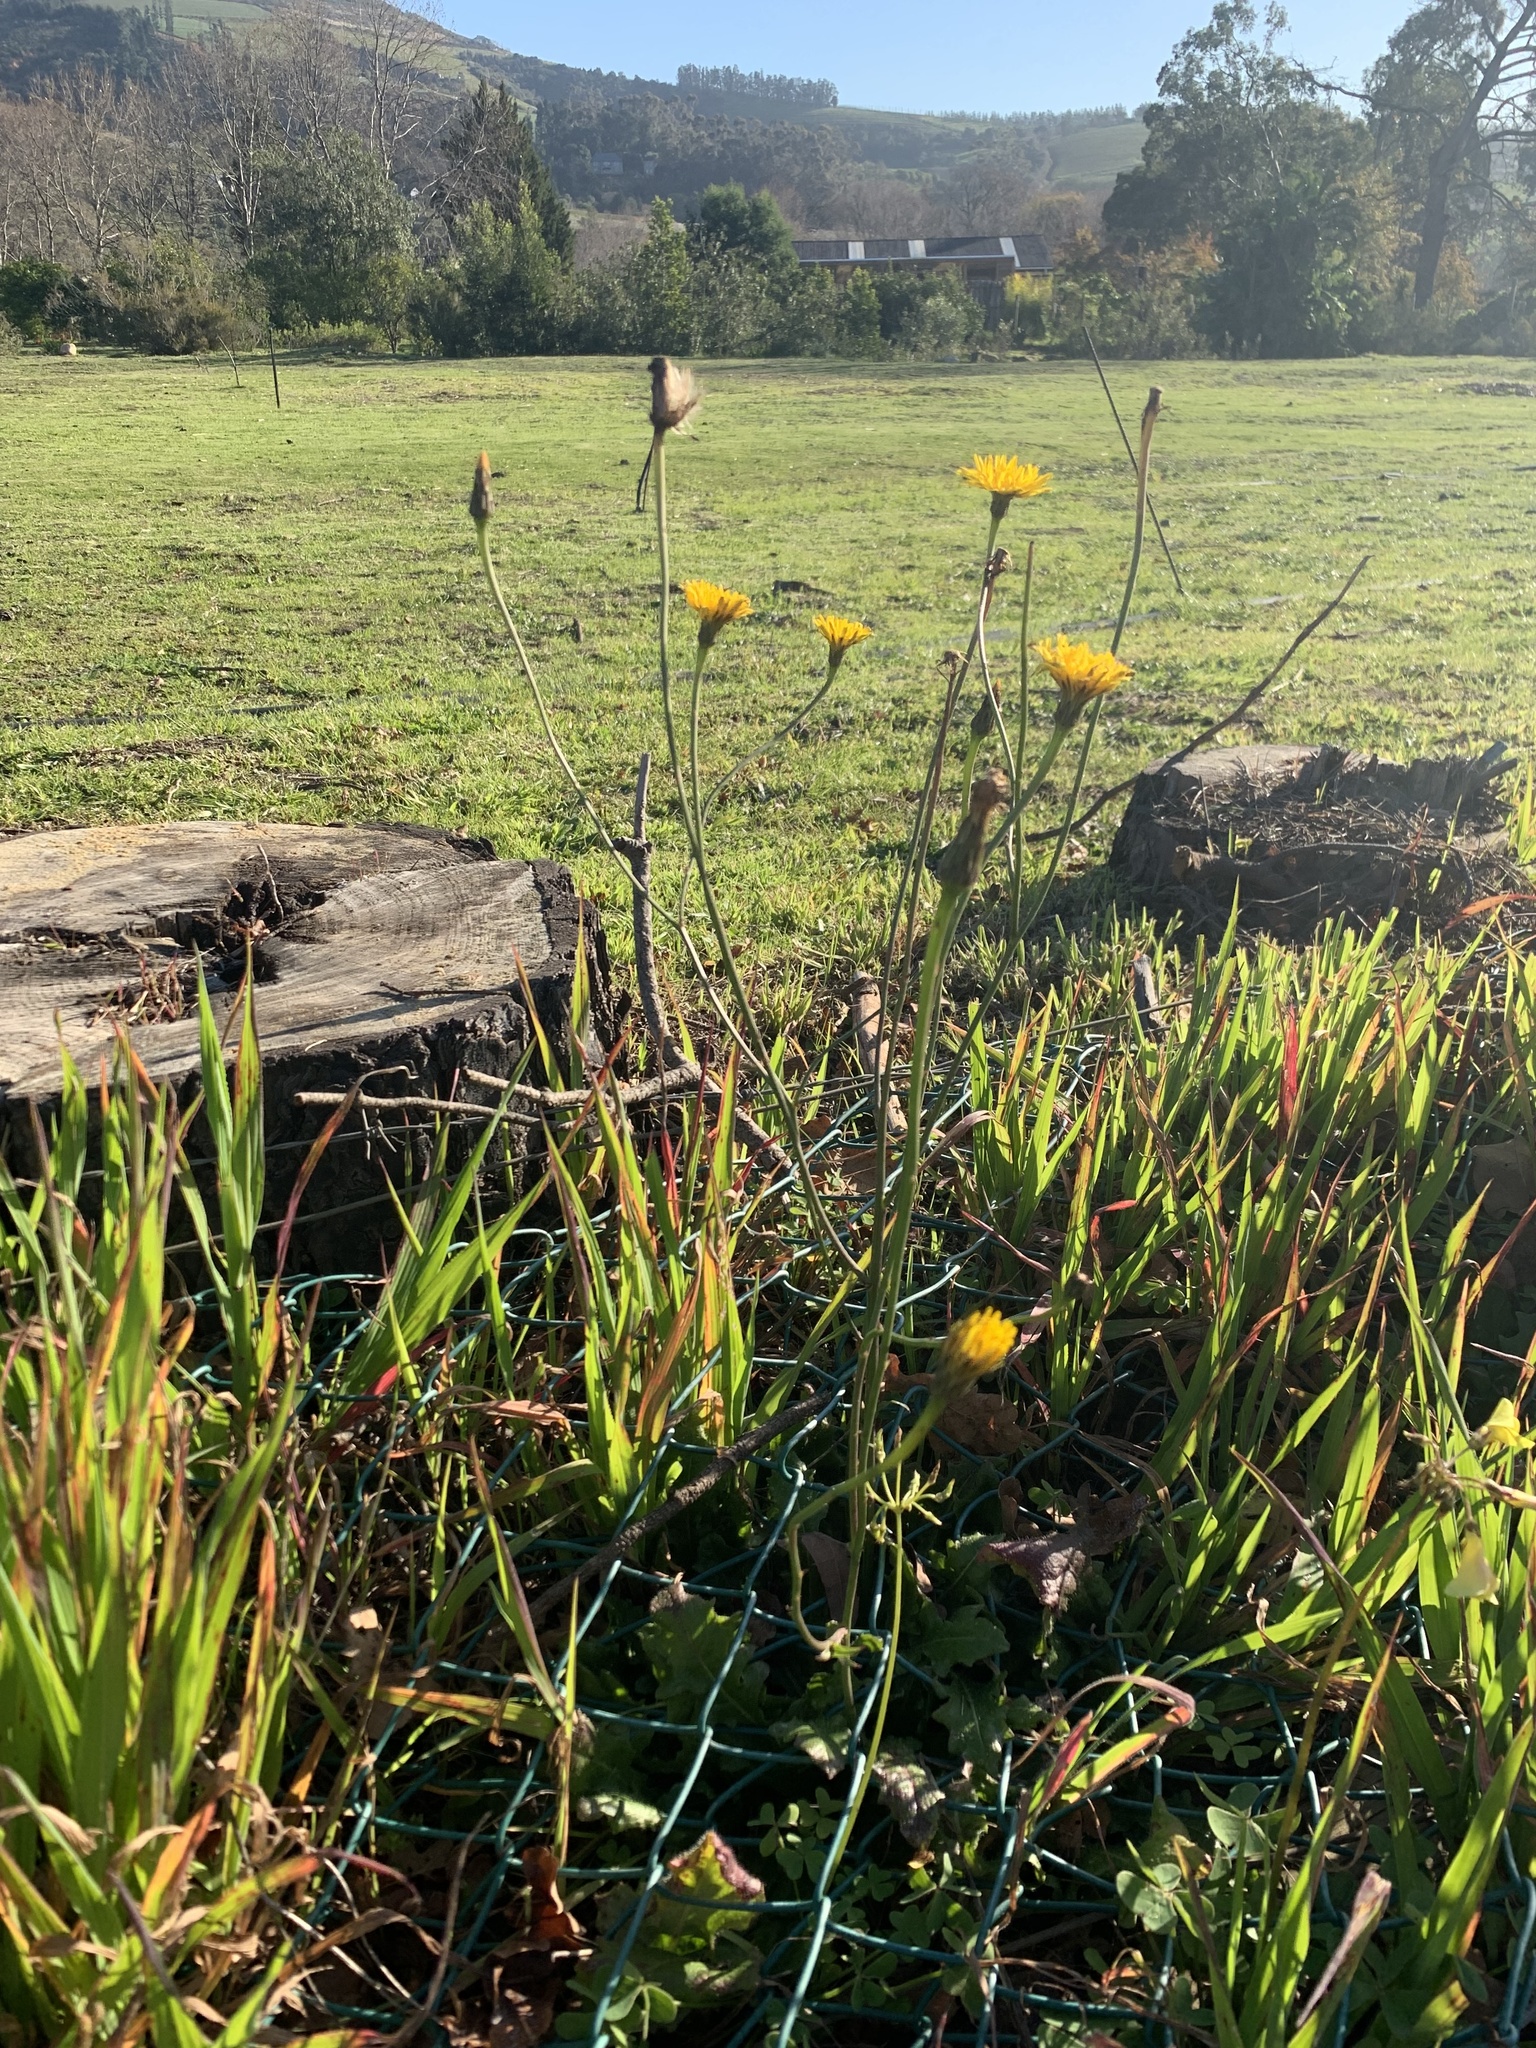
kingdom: Plantae
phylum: Tracheophyta
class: Magnoliopsida
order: Asterales
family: Asteraceae
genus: Hypochaeris
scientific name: Hypochaeris radicata
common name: Flatweed
